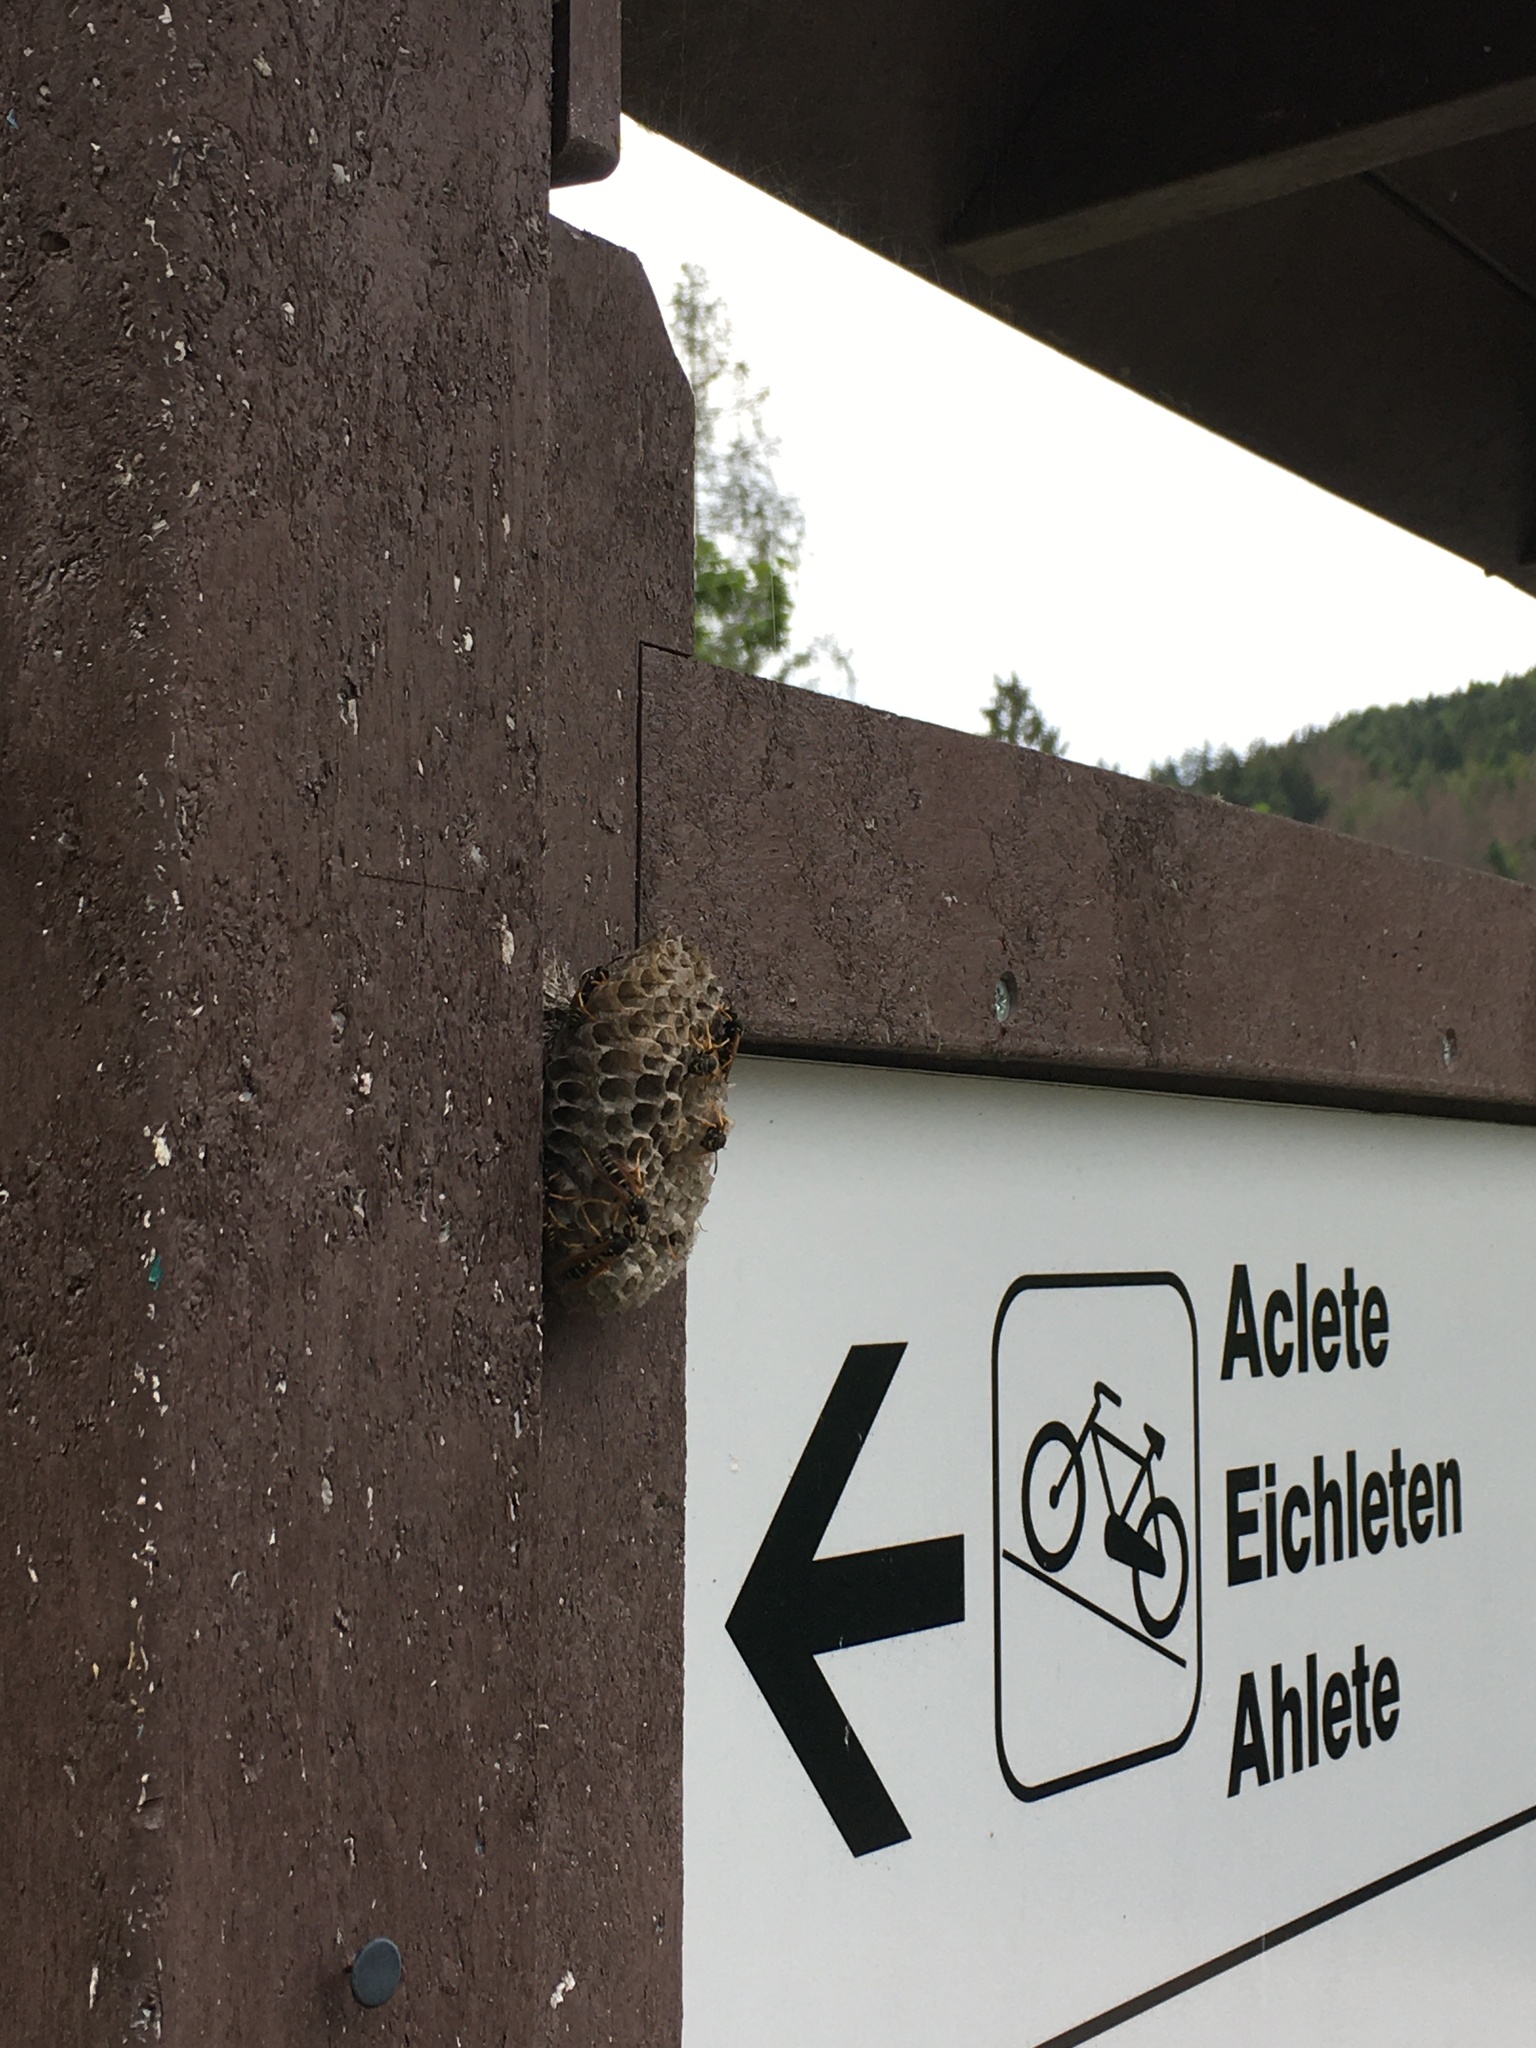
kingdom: Animalia
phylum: Arthropoda
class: Insecta
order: Hymenoptera
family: Eumenidae
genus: Polistes
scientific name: Polistes biglumis
